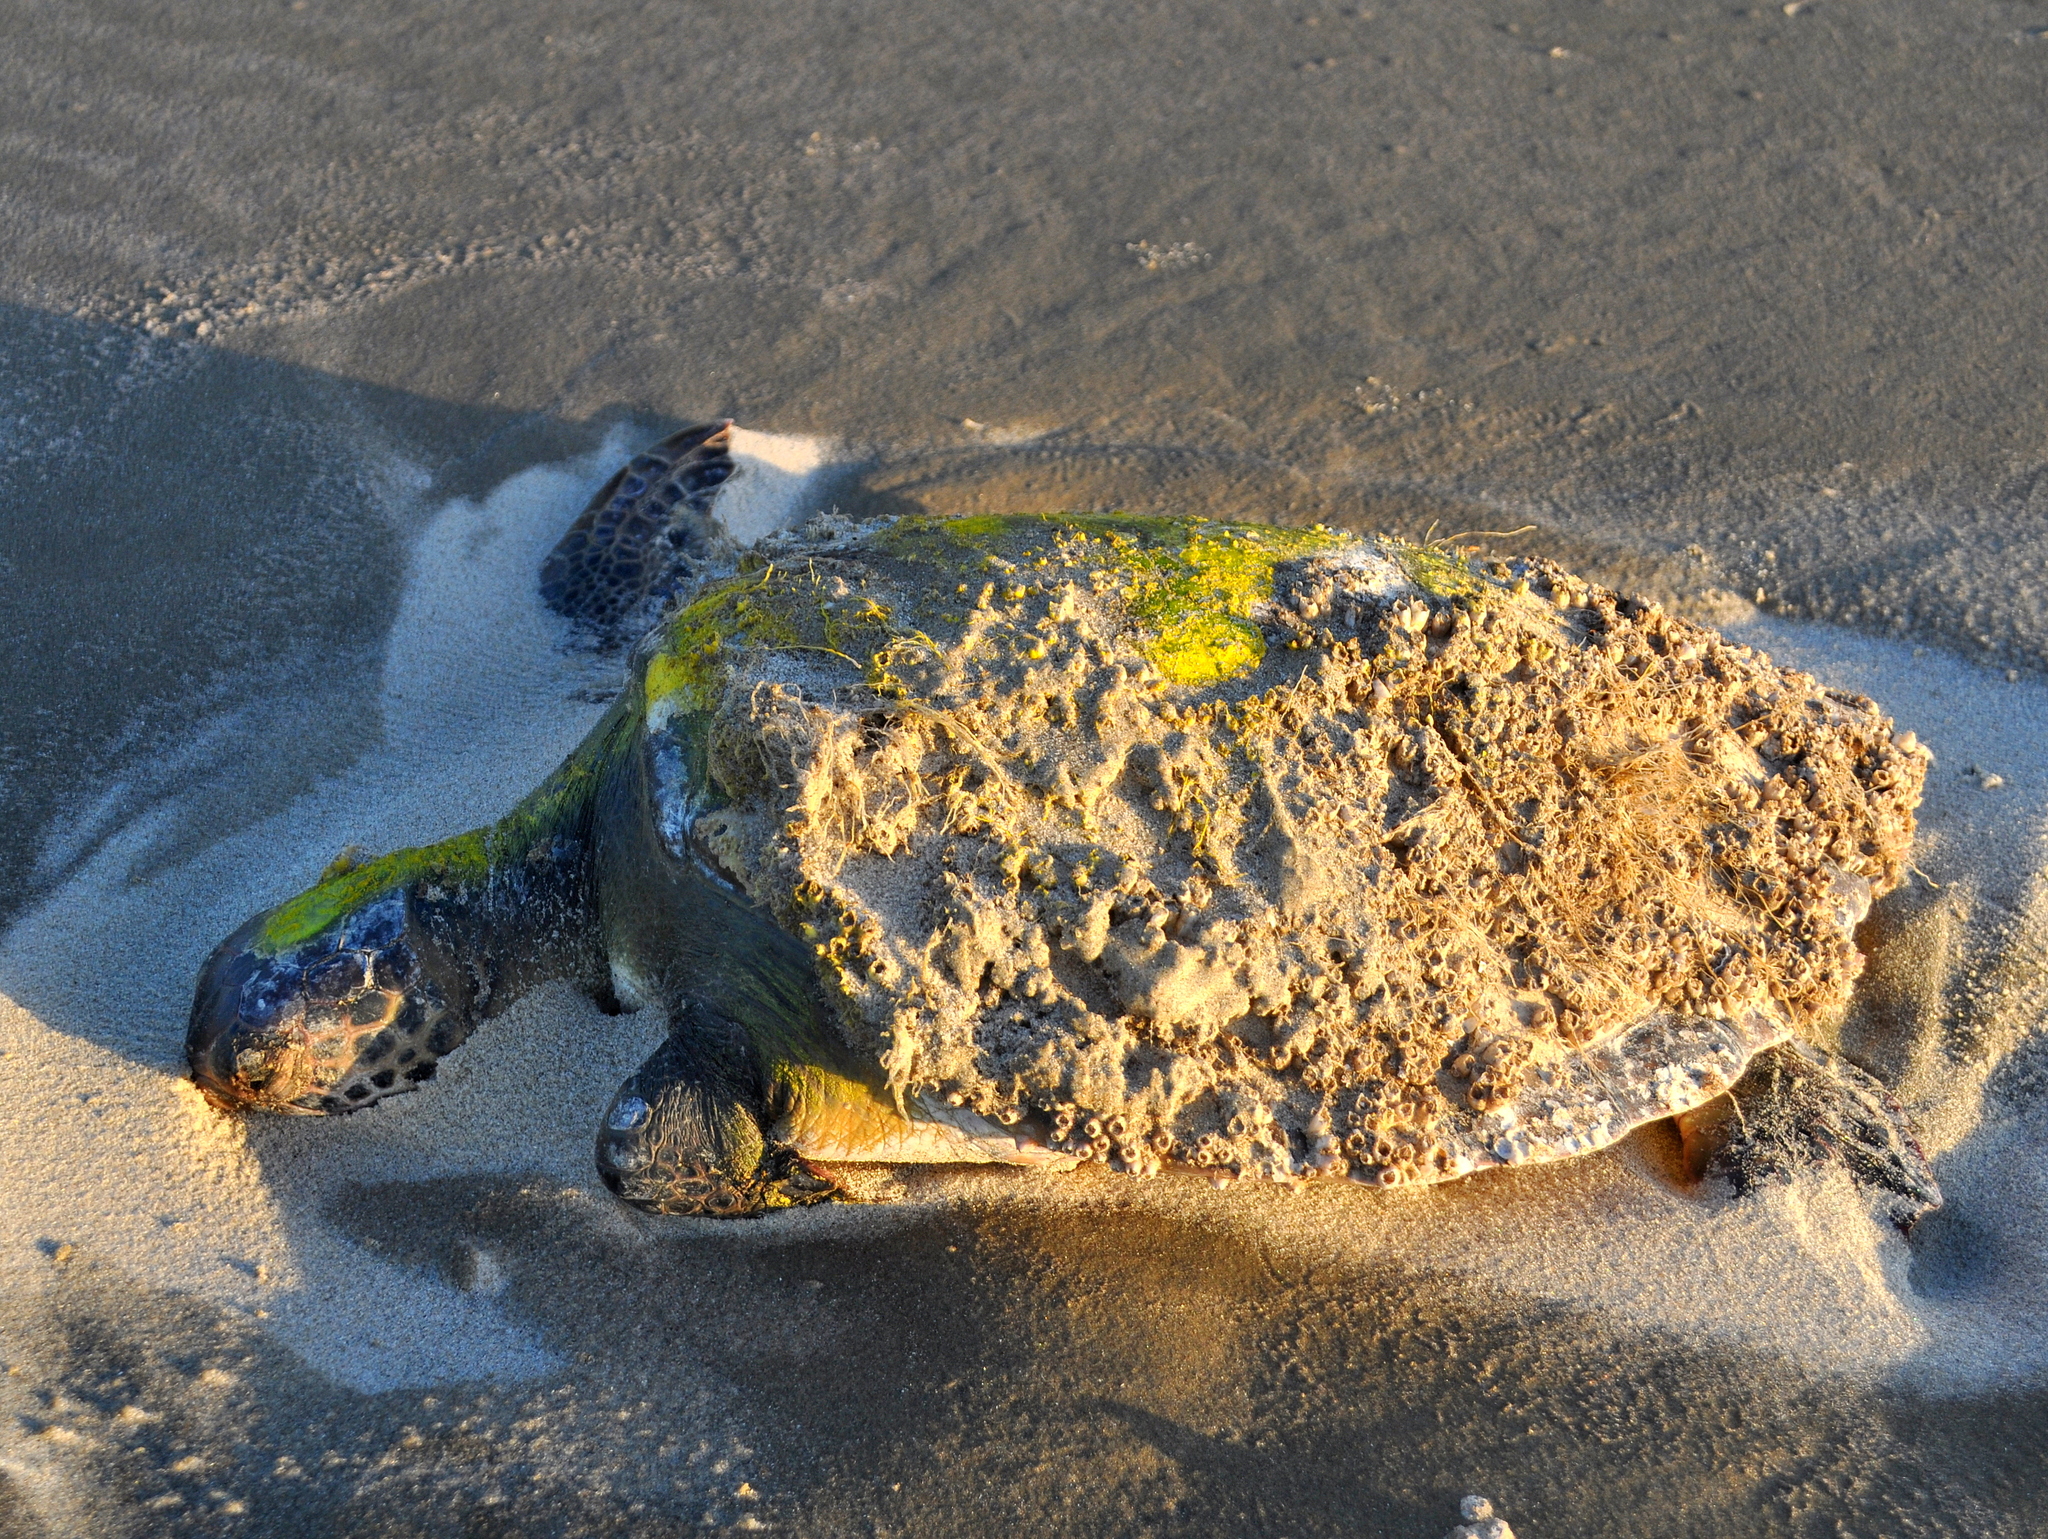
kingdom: Animalia
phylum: Chordata
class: Testudines
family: Cheloniidae
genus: Chelonia
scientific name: Chelonia mydas
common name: Green turtle
